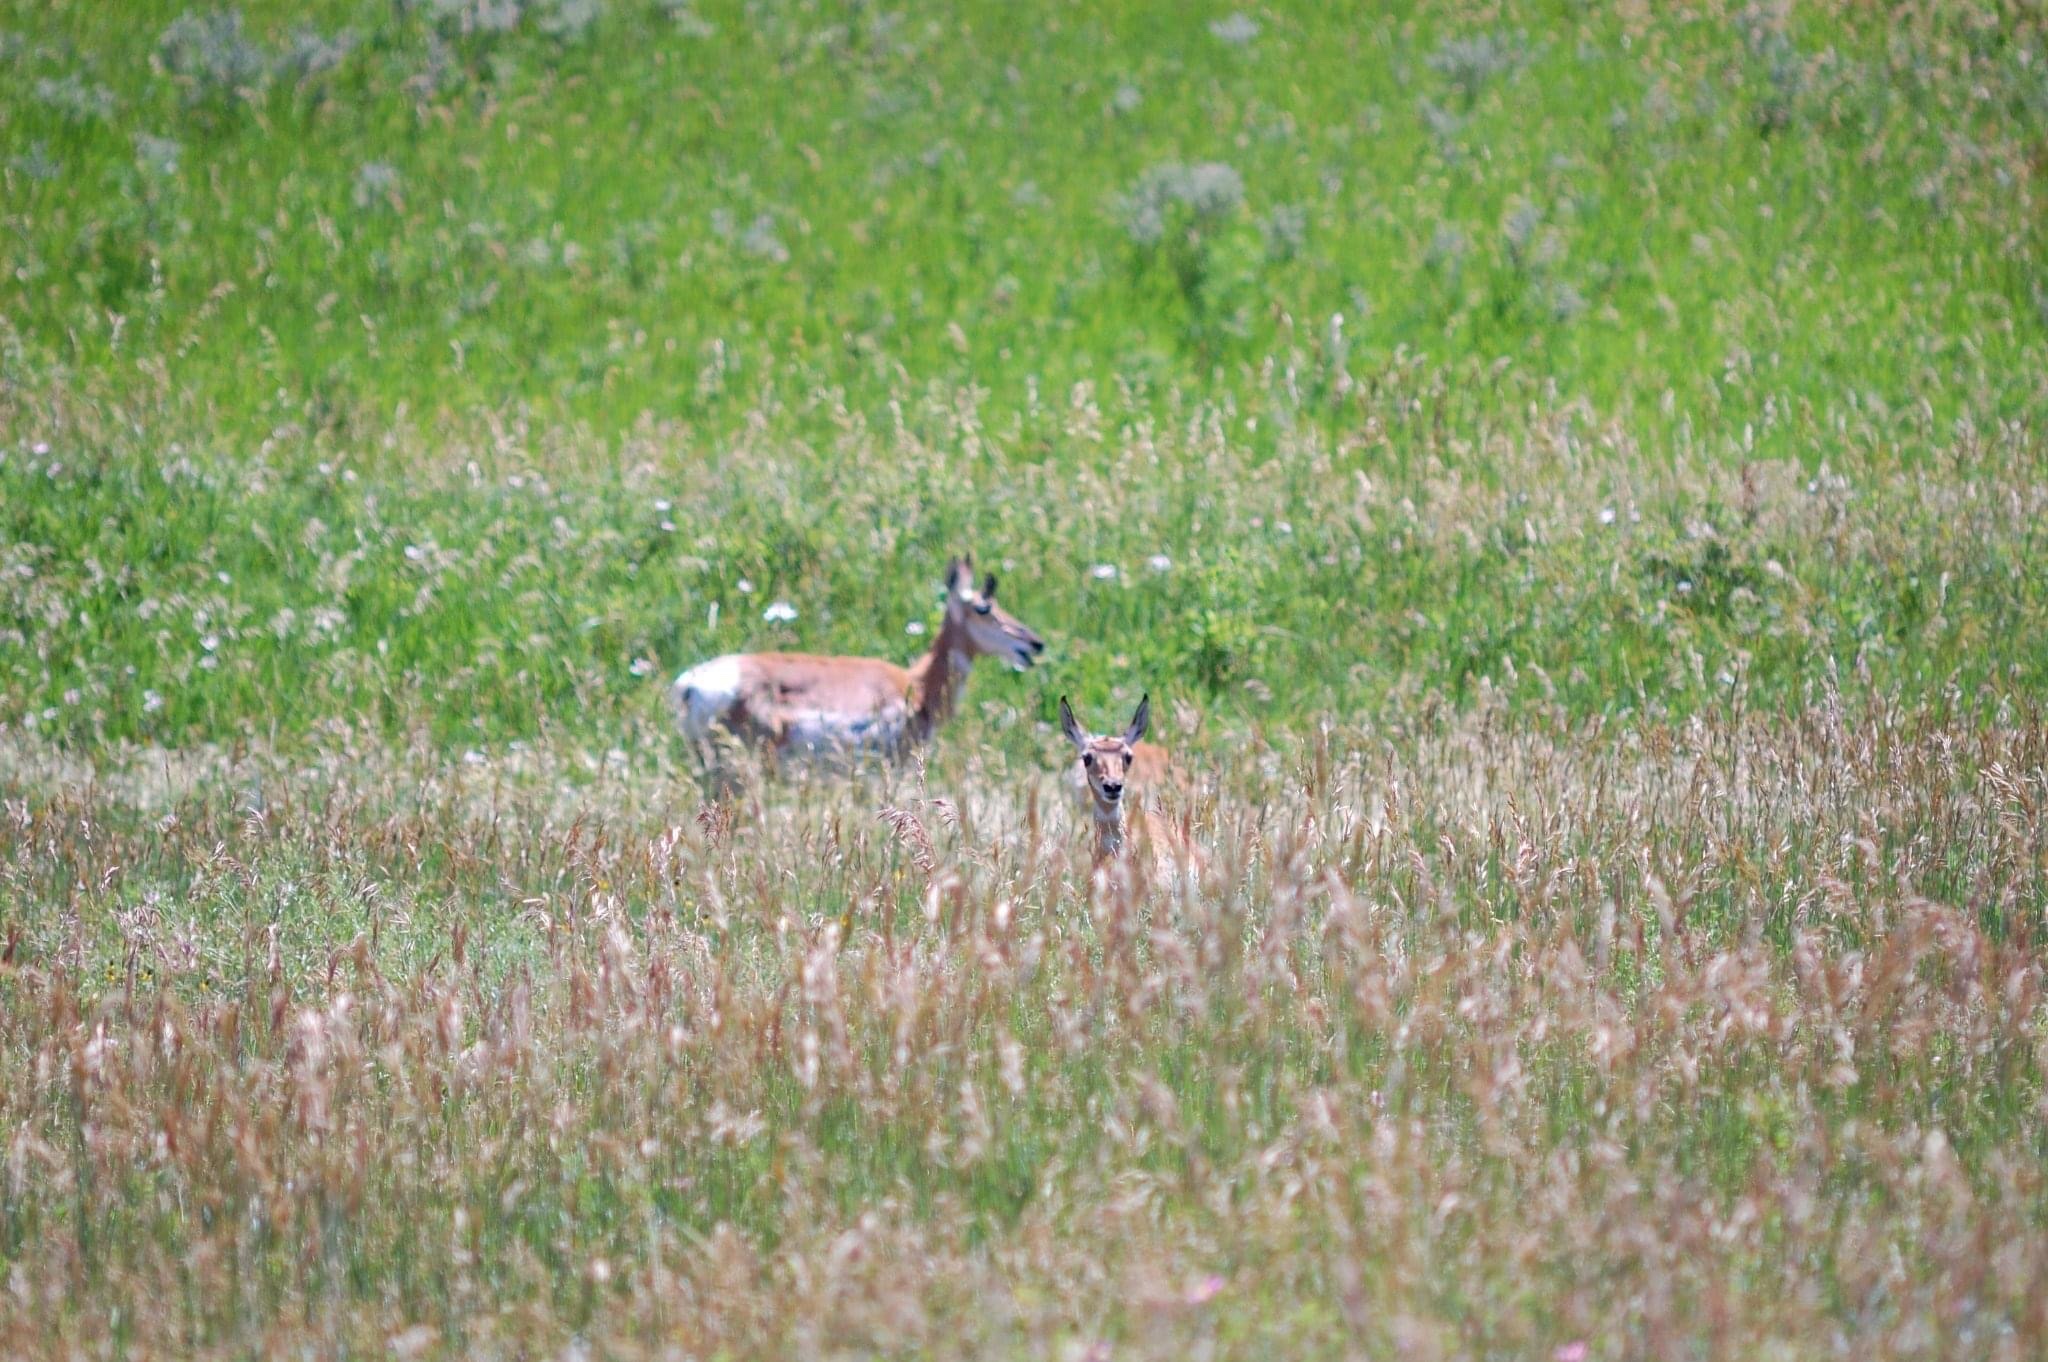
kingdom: Animalia
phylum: Chordata
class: Mammalia
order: Artiodactyla
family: Antilocapridae
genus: Antilocapra
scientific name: Antilocapra americana
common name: Pronghorn
